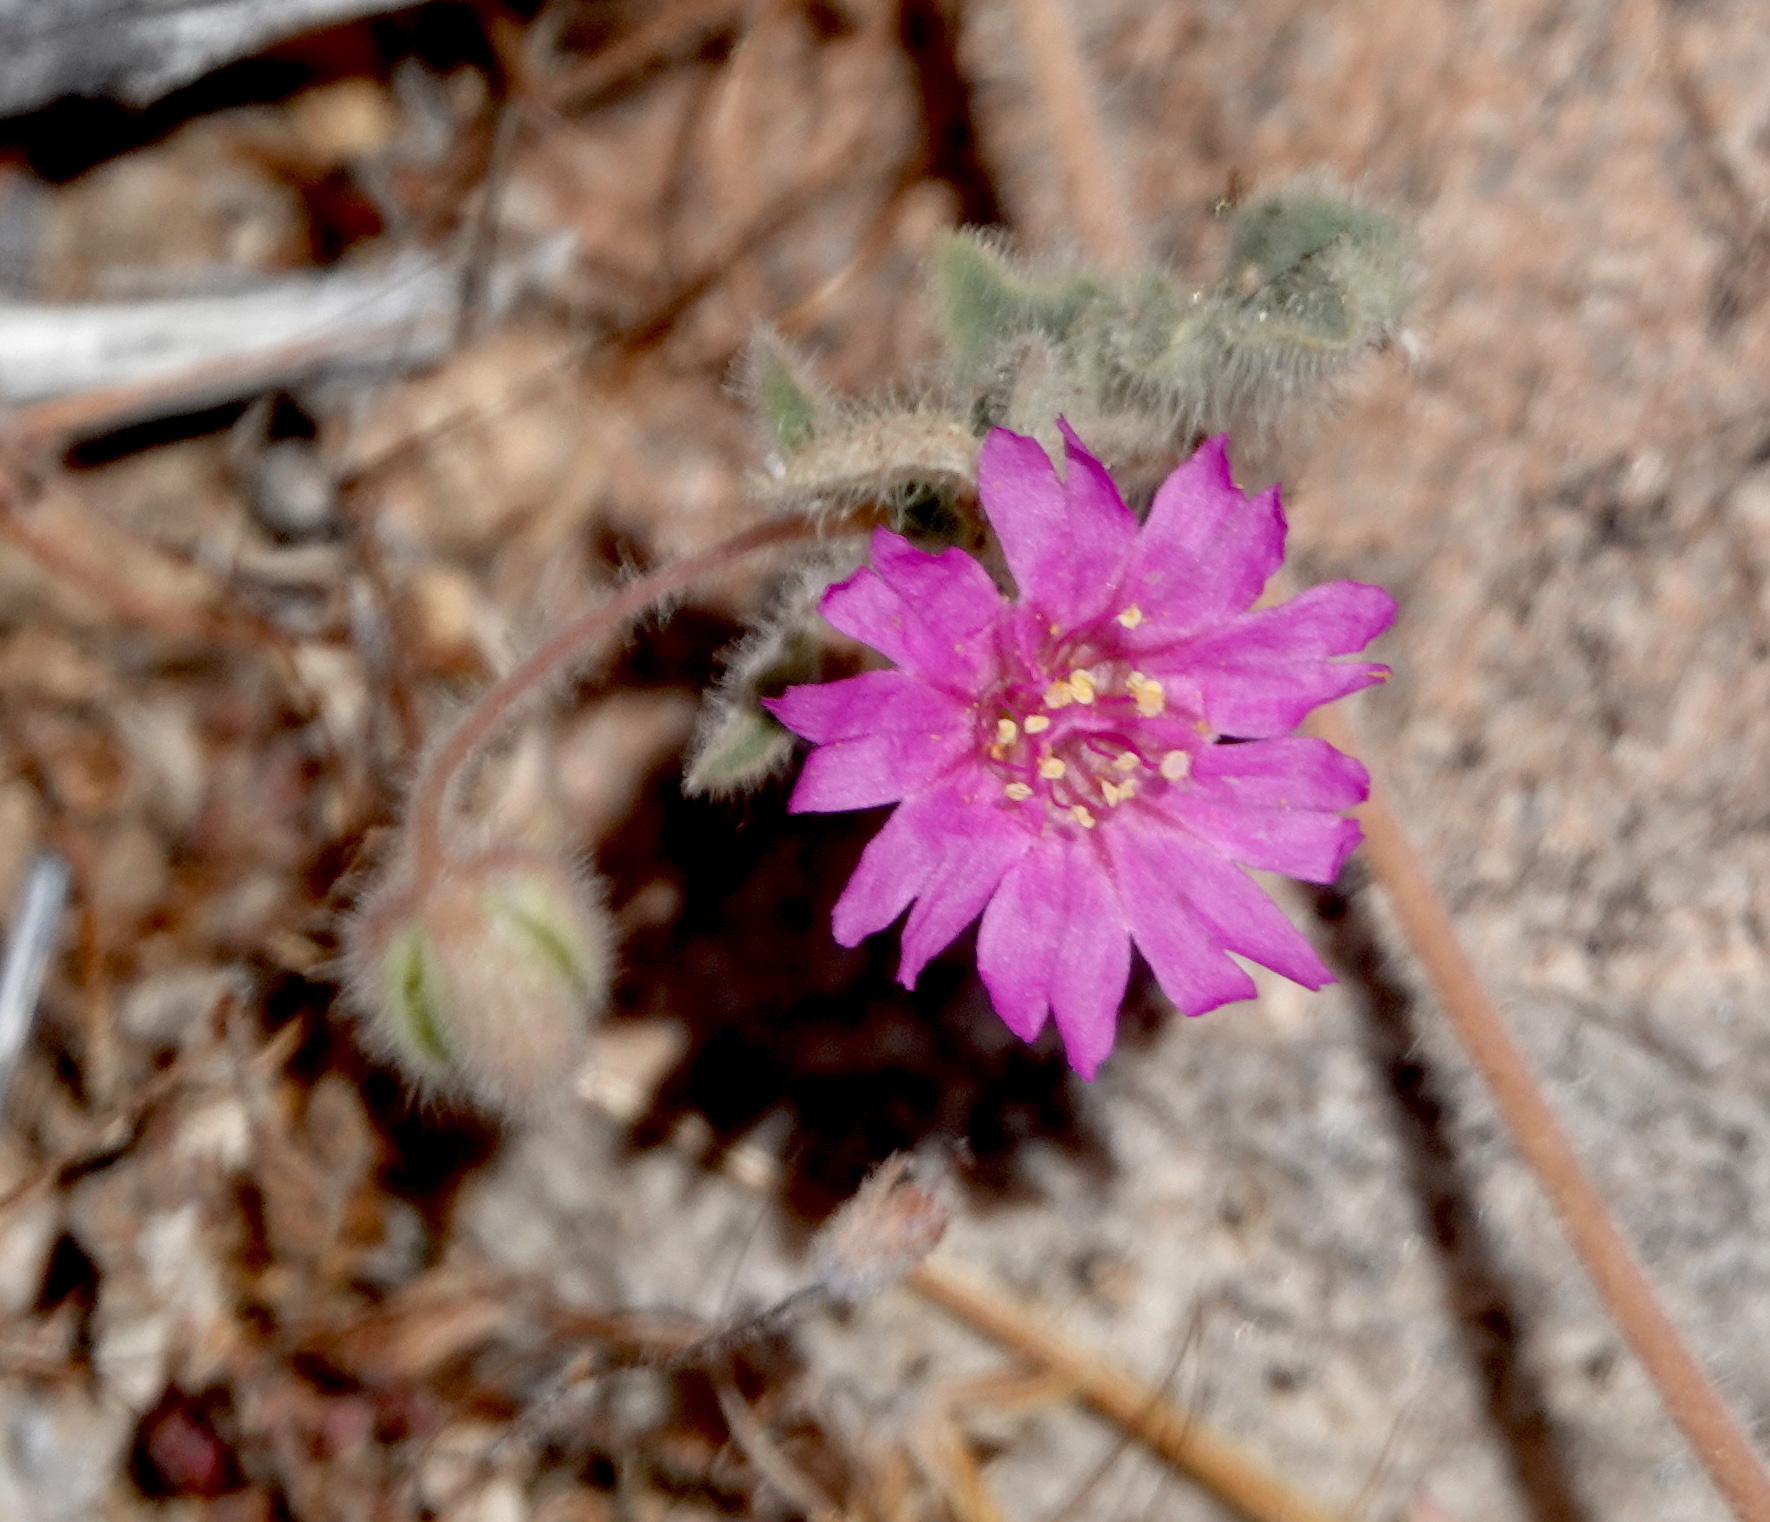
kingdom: Plantae
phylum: Tracheophyta
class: Magnoliopsida
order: Caryophyllales
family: Nyctaginaceae
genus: Allionia
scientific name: Allionia incarnata
